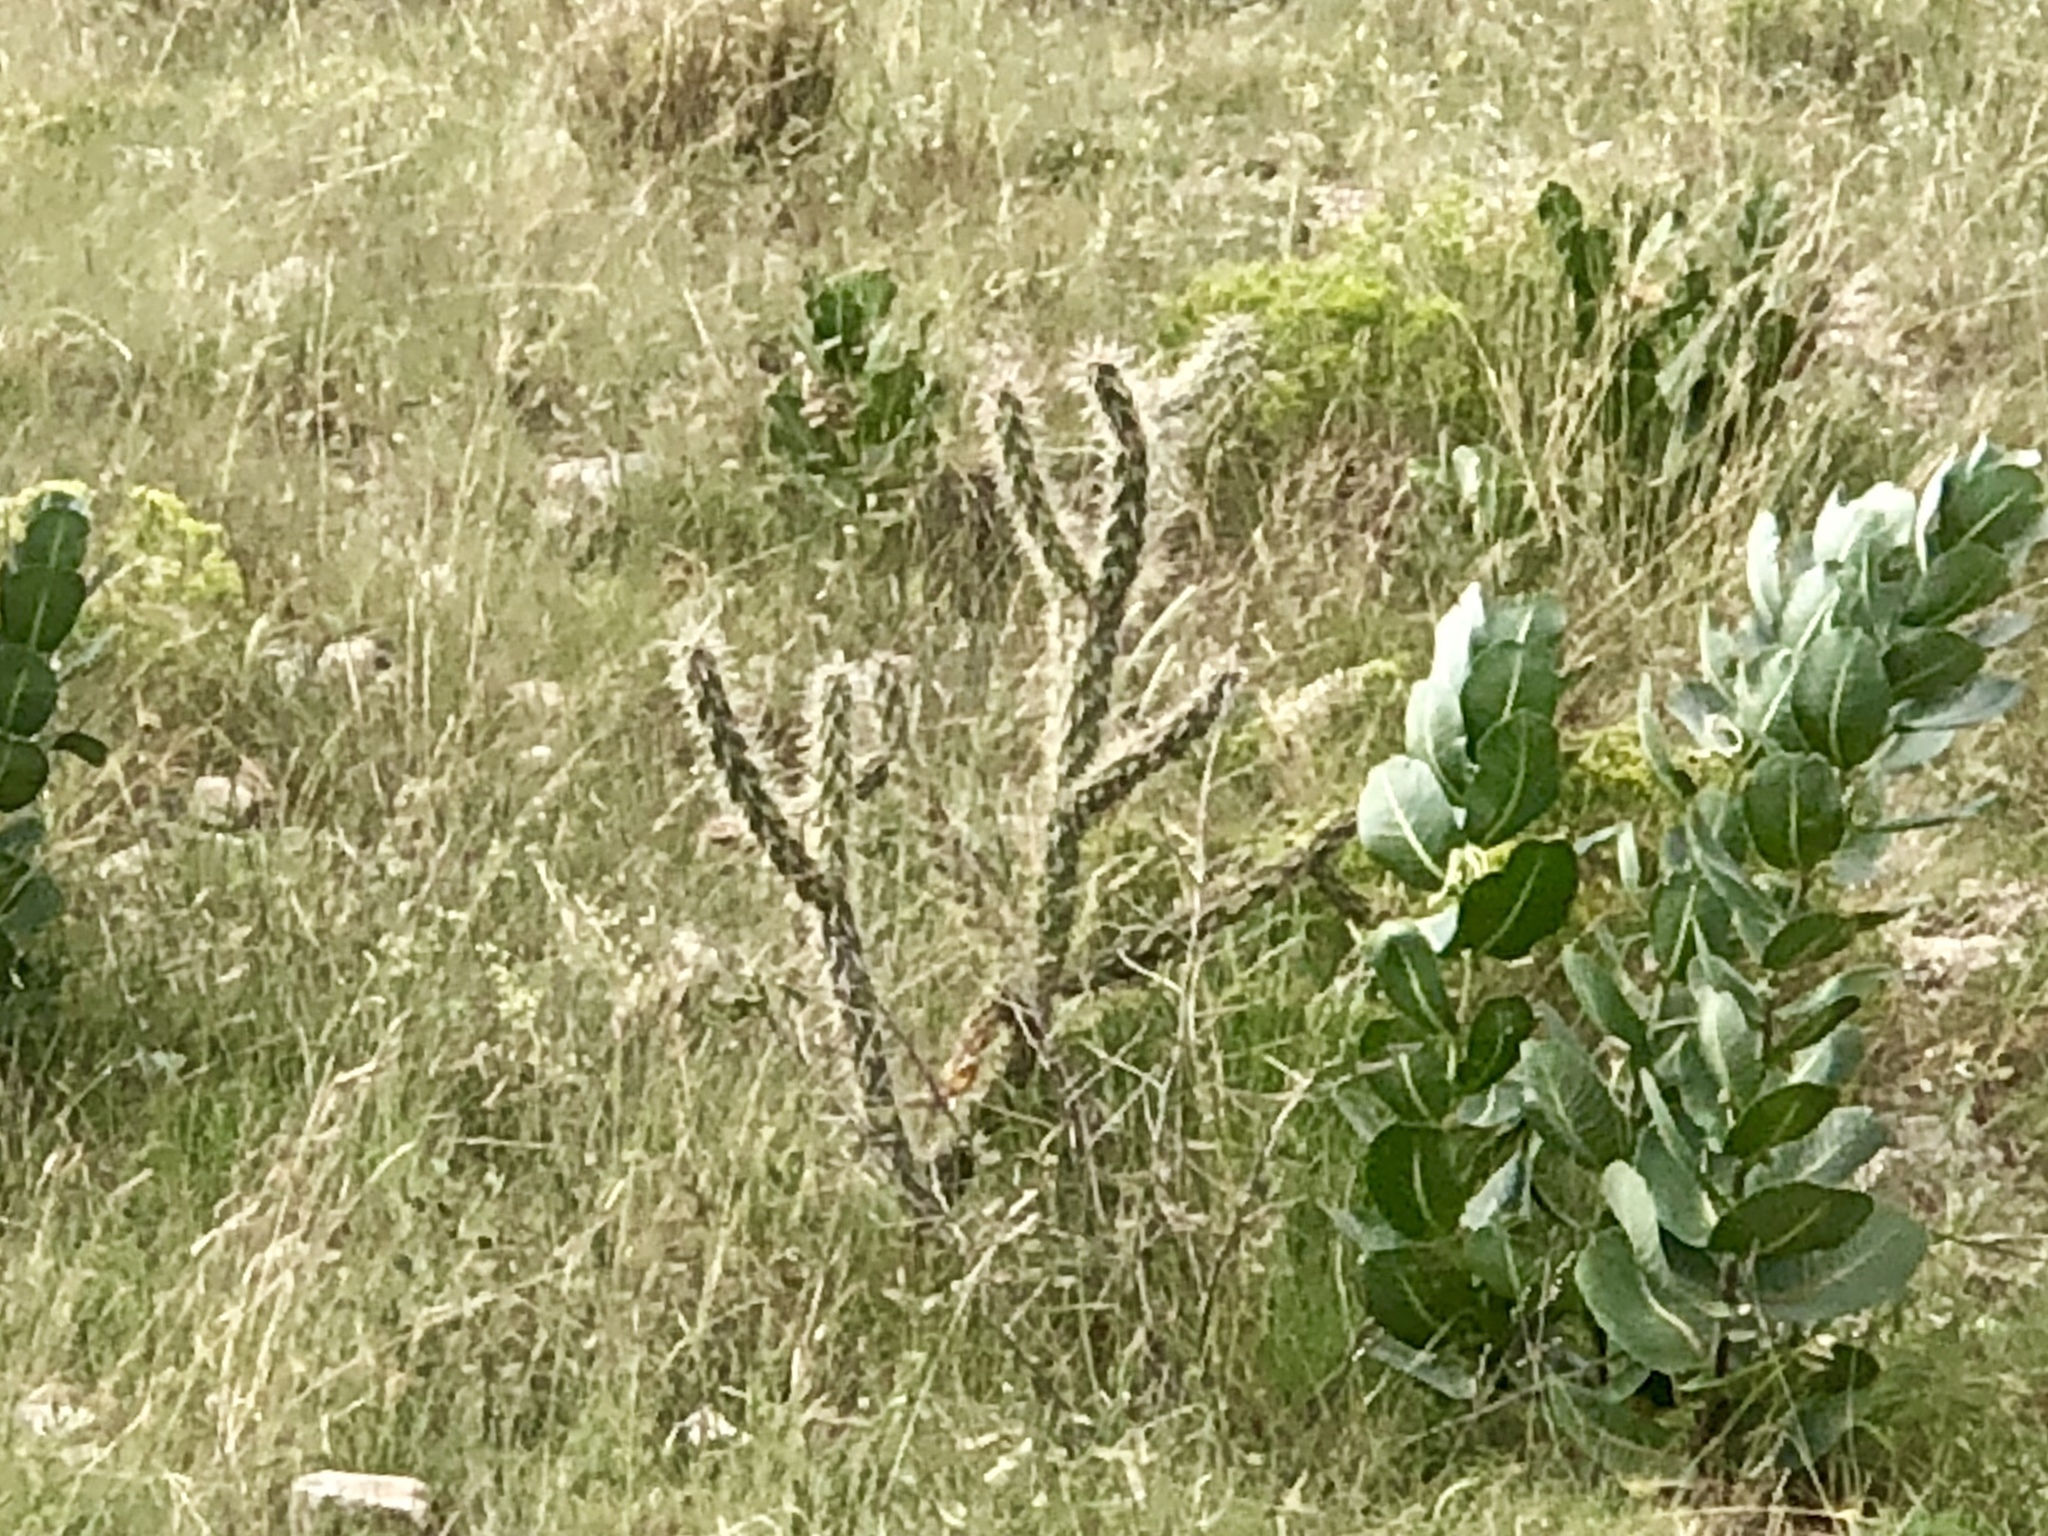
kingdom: Plantae
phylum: Tracheophyta
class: Magnoliopsida
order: Caryophyllales
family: Cactaceae
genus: Cylindropuntia
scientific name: Cylindropuntia imbricata
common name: Candelabrum cactus
